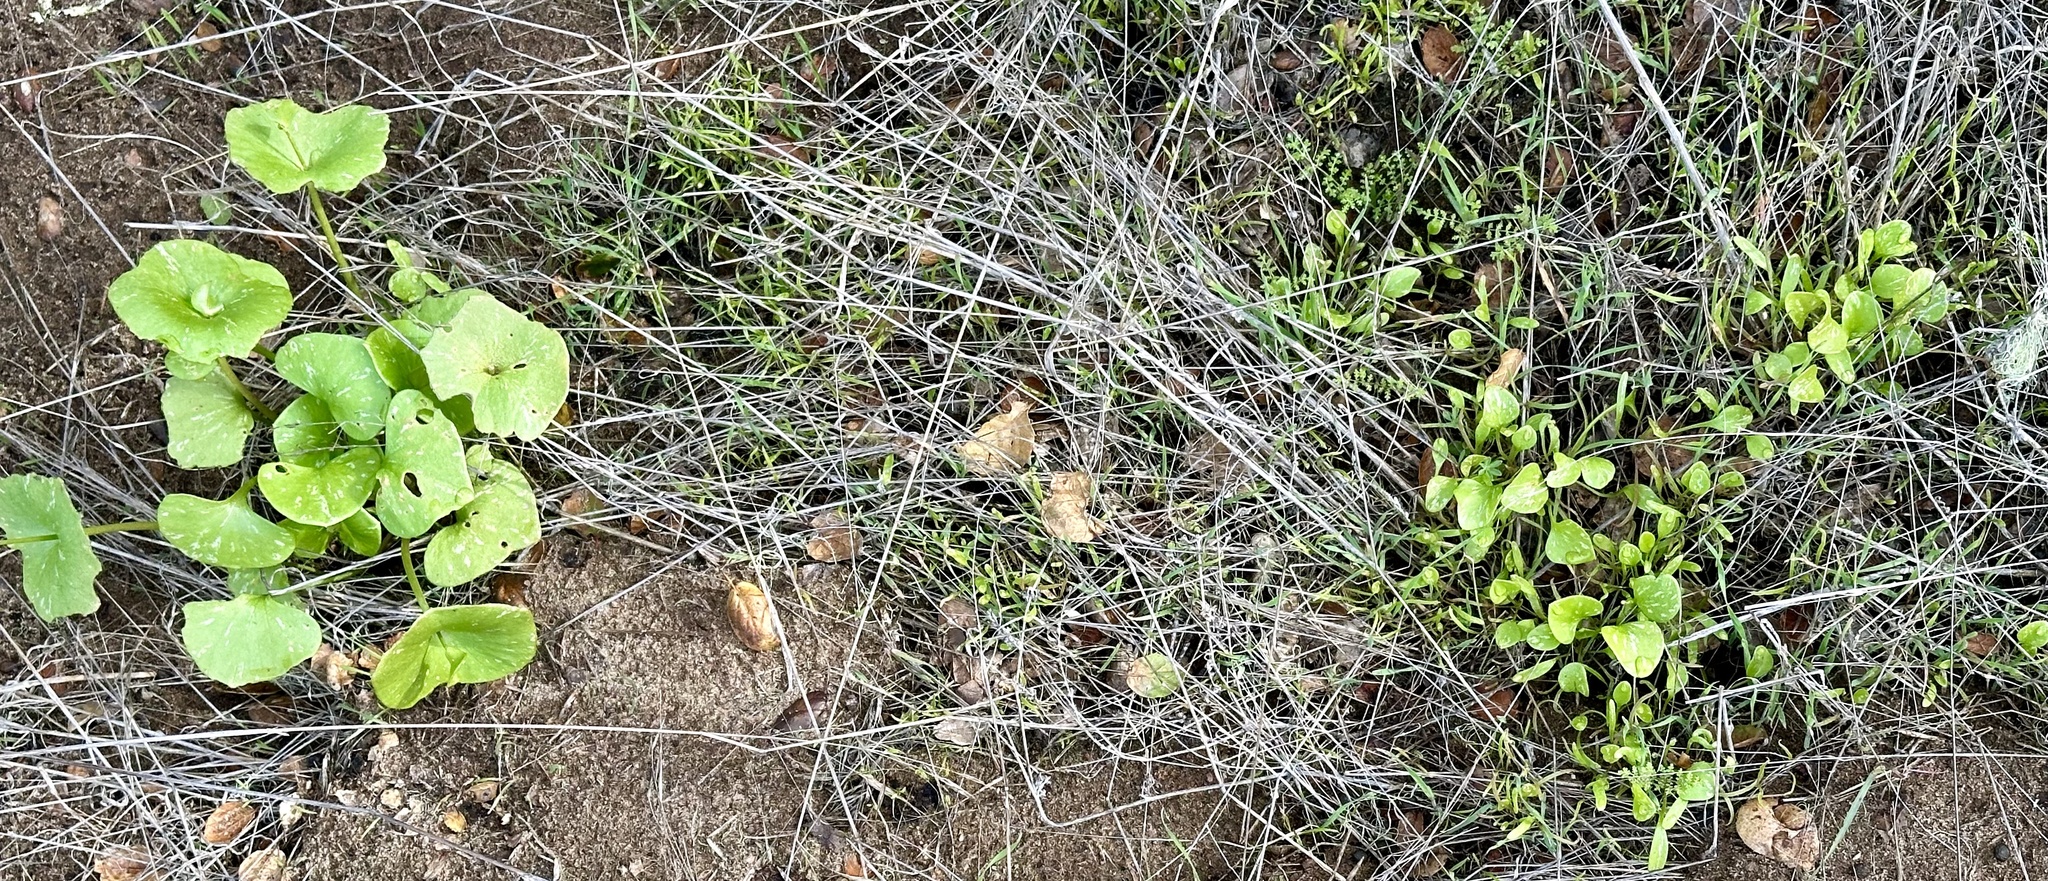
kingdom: Plantae
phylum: Tracheophyta
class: Magnoliopsida
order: Caryophyllales
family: Montiaceae
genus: Claytonia
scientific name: Claytonia perfoliata
